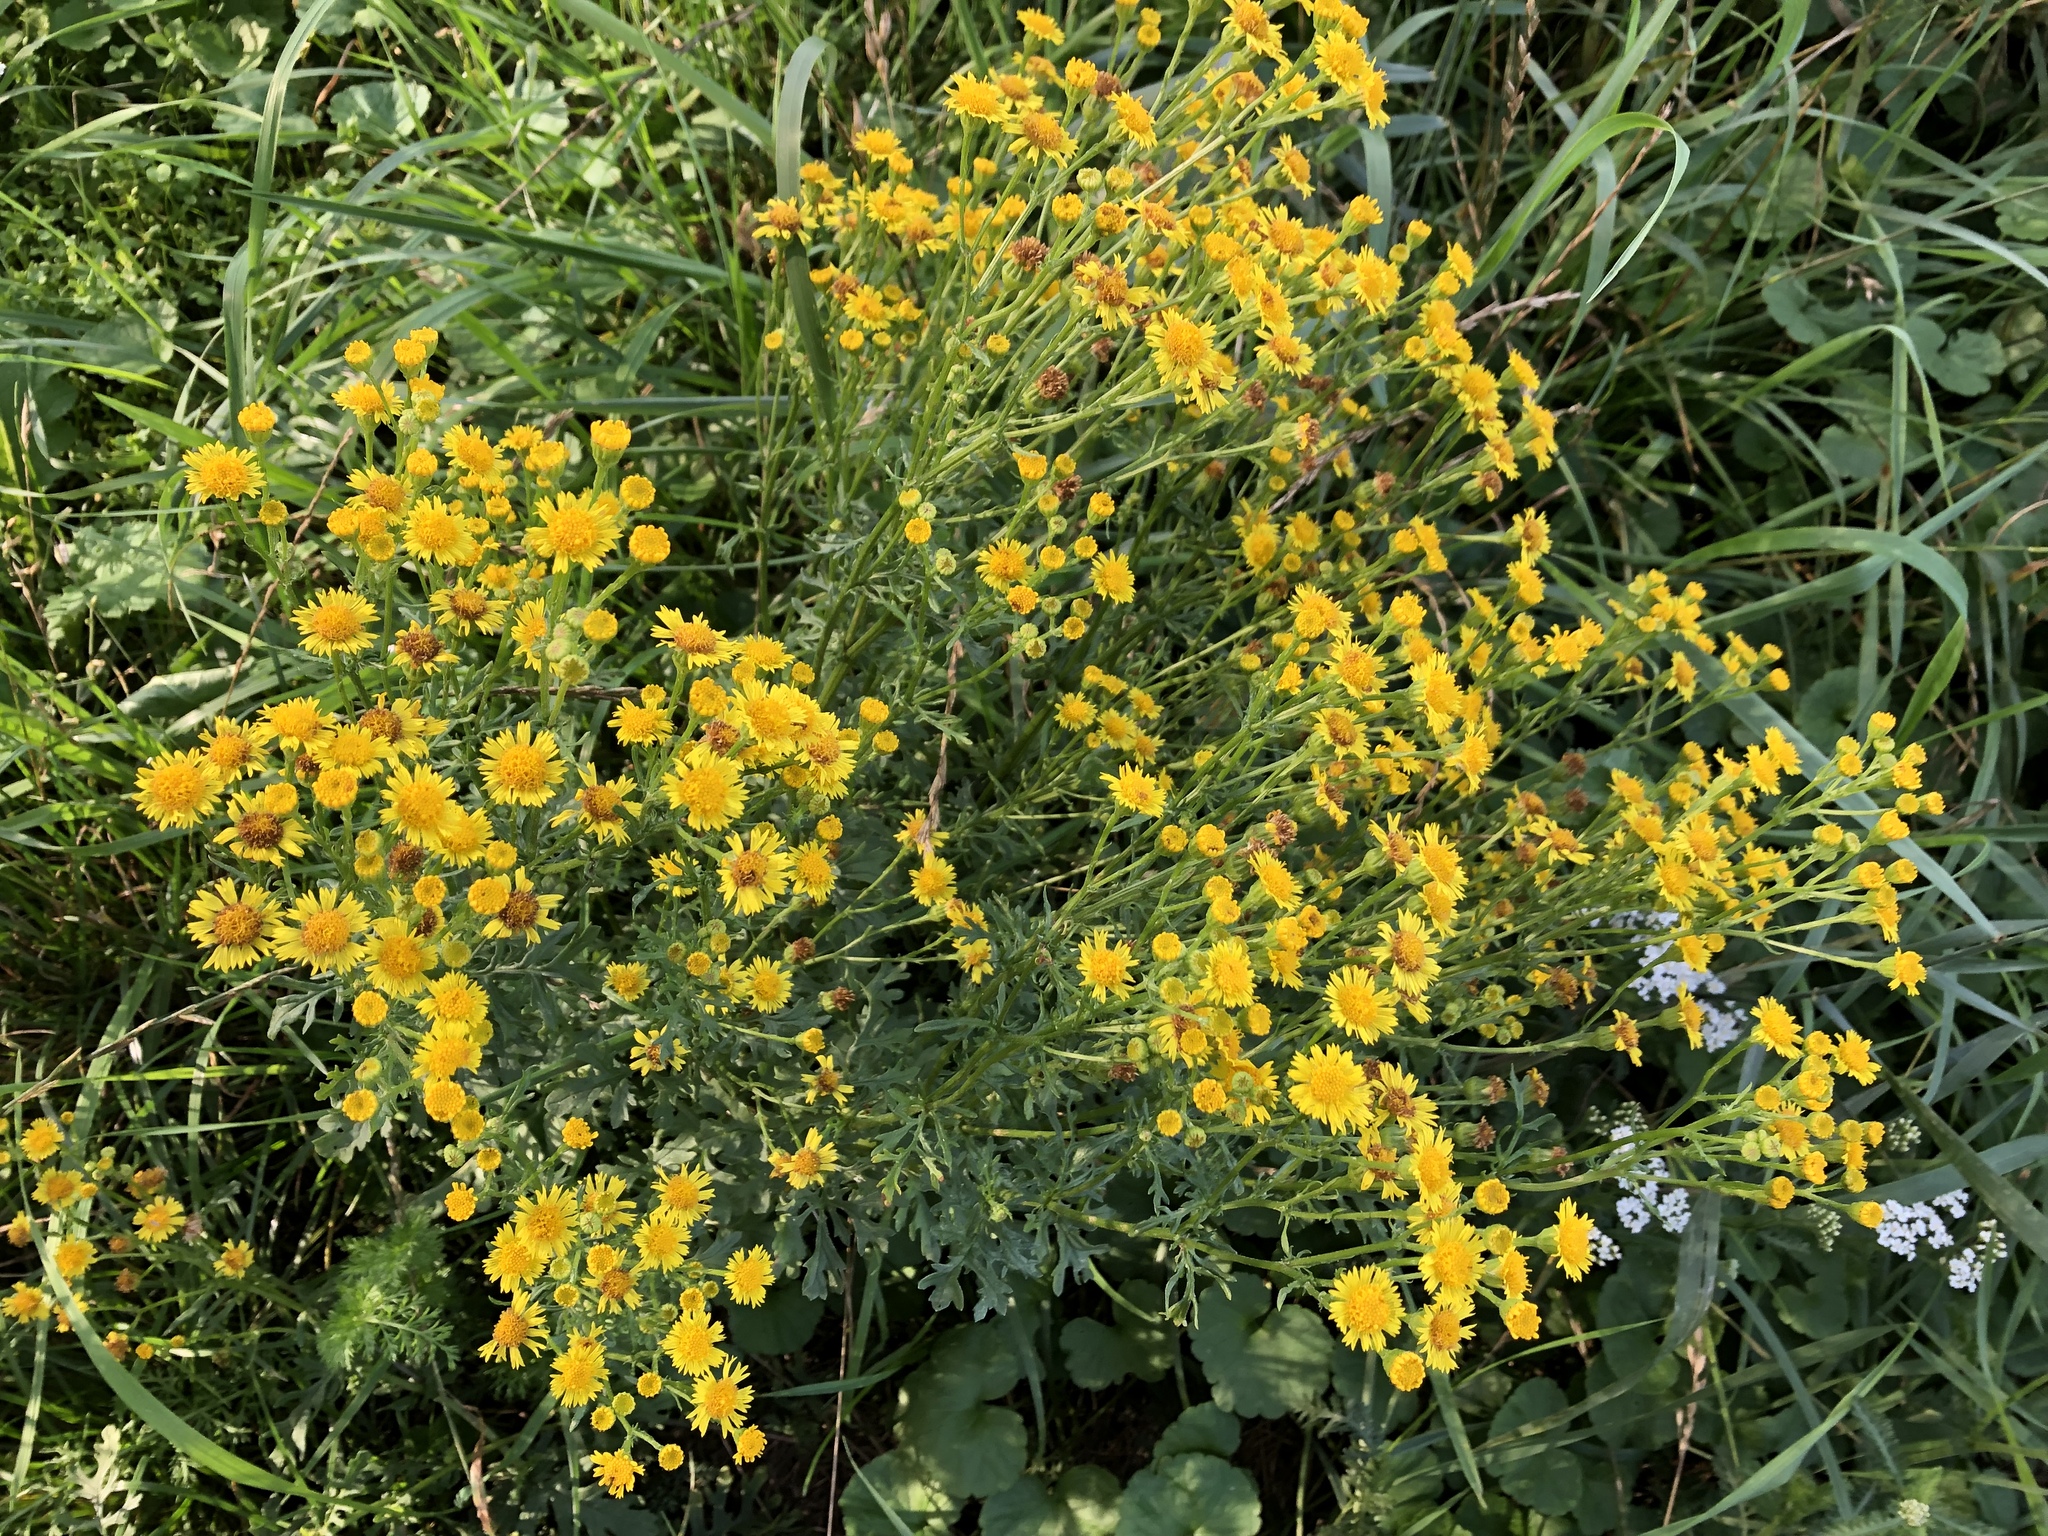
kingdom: Plantae
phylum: Tracheophyta
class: Magnoliopsida
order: Asterales
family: Asteraceae
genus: Jacobaea
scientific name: Jacobaea vulgaris
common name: Stinking willie
